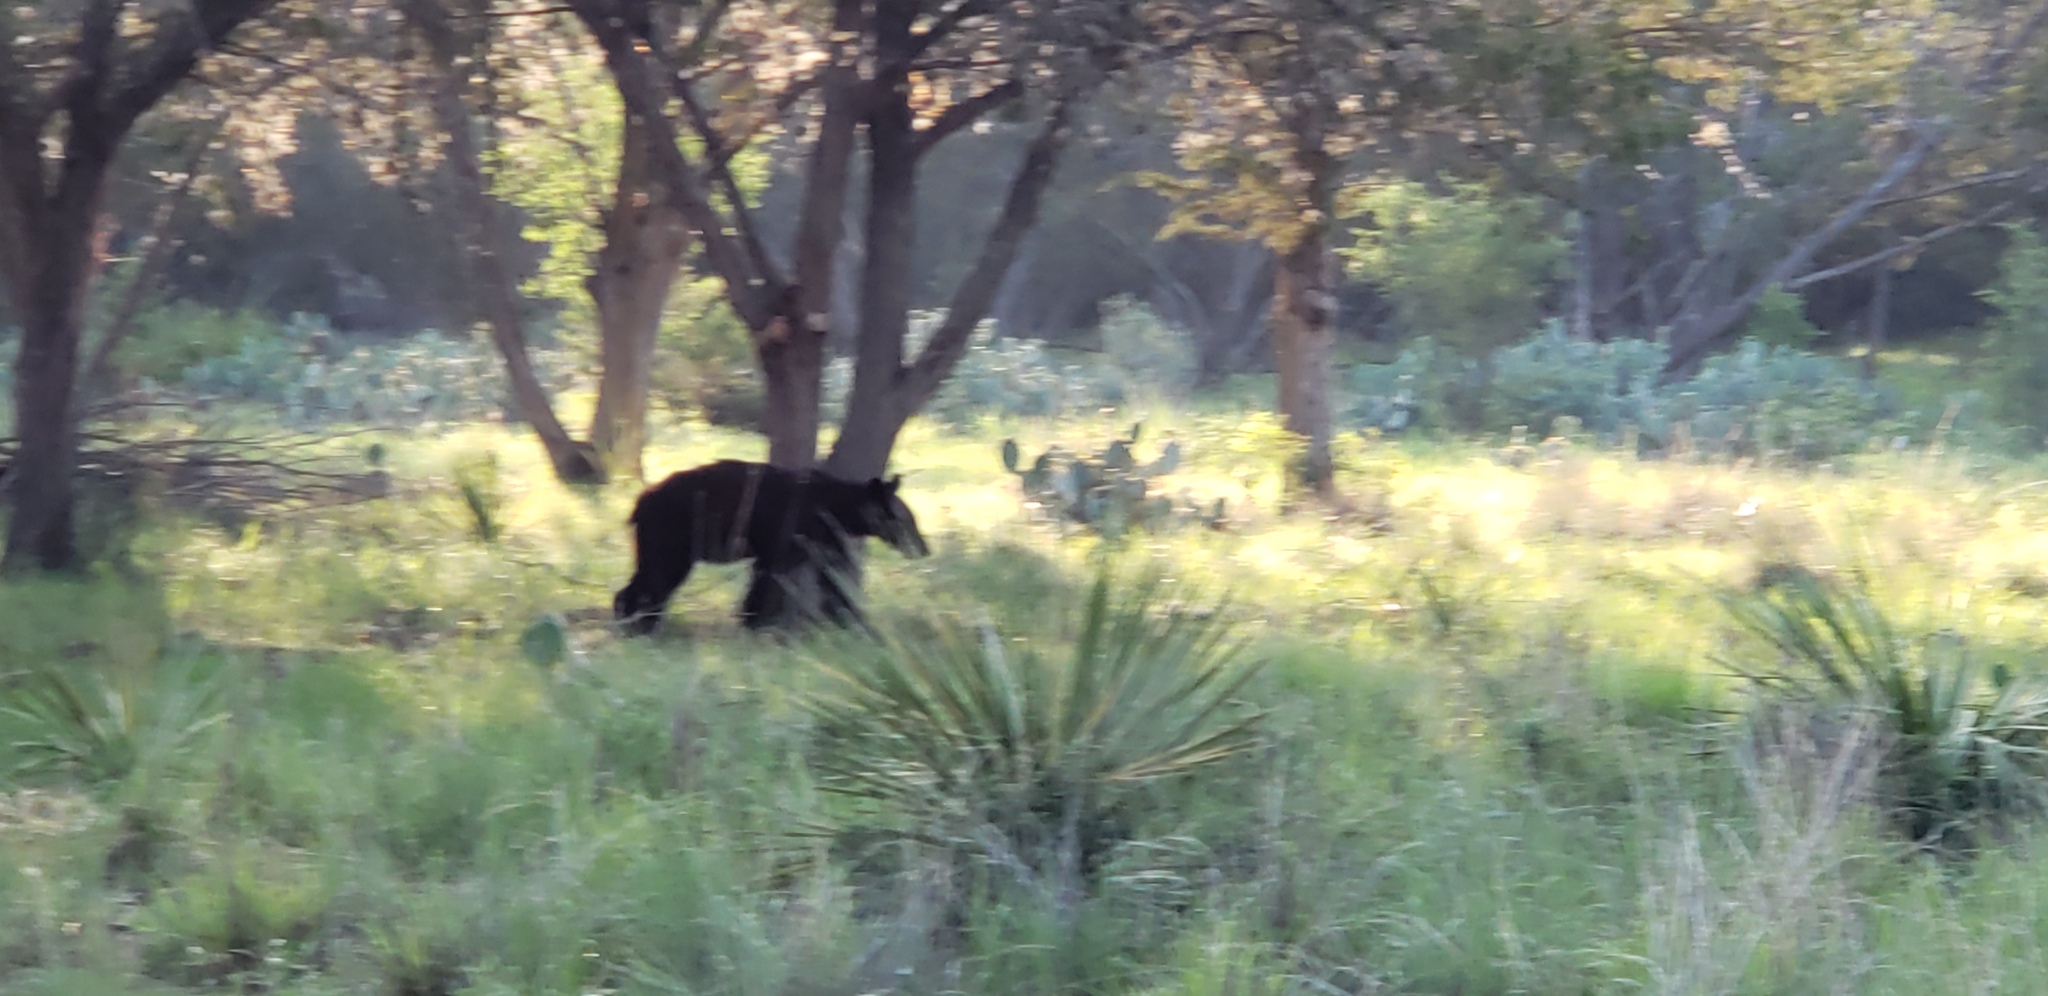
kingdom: Animalia
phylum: Chordata
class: Mammalia
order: Carnivora
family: Ursidae
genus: Ursus
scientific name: Ursus americanus
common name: American black bear
